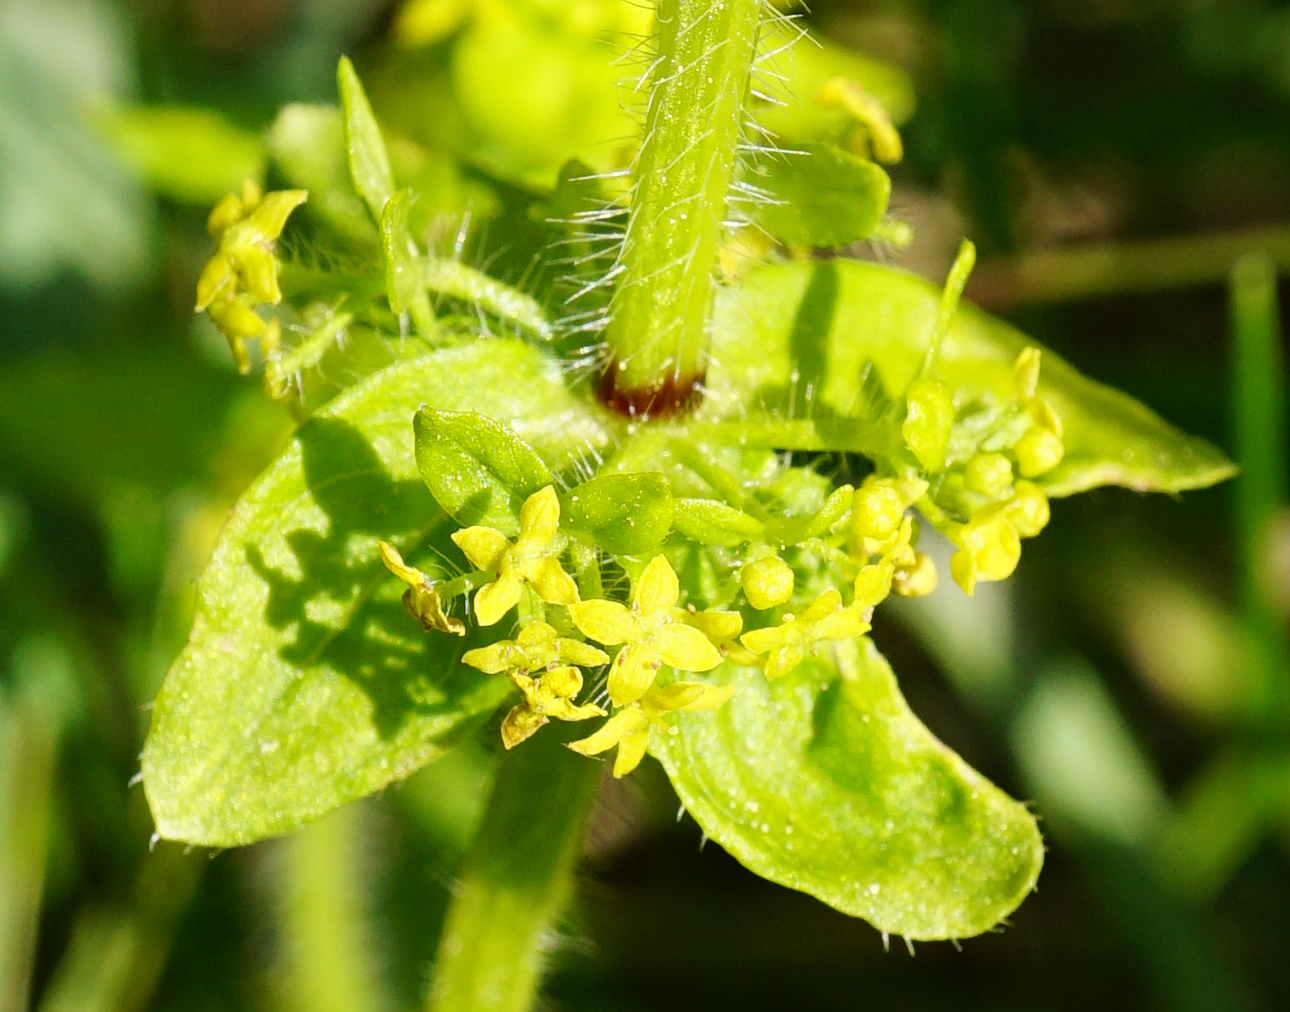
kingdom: Plantae
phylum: Tracheophyta
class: Magnoliopsida
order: Gentianales
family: Rubiaceae
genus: Cruciata
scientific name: Cruciata laevipes
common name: Crosswort
